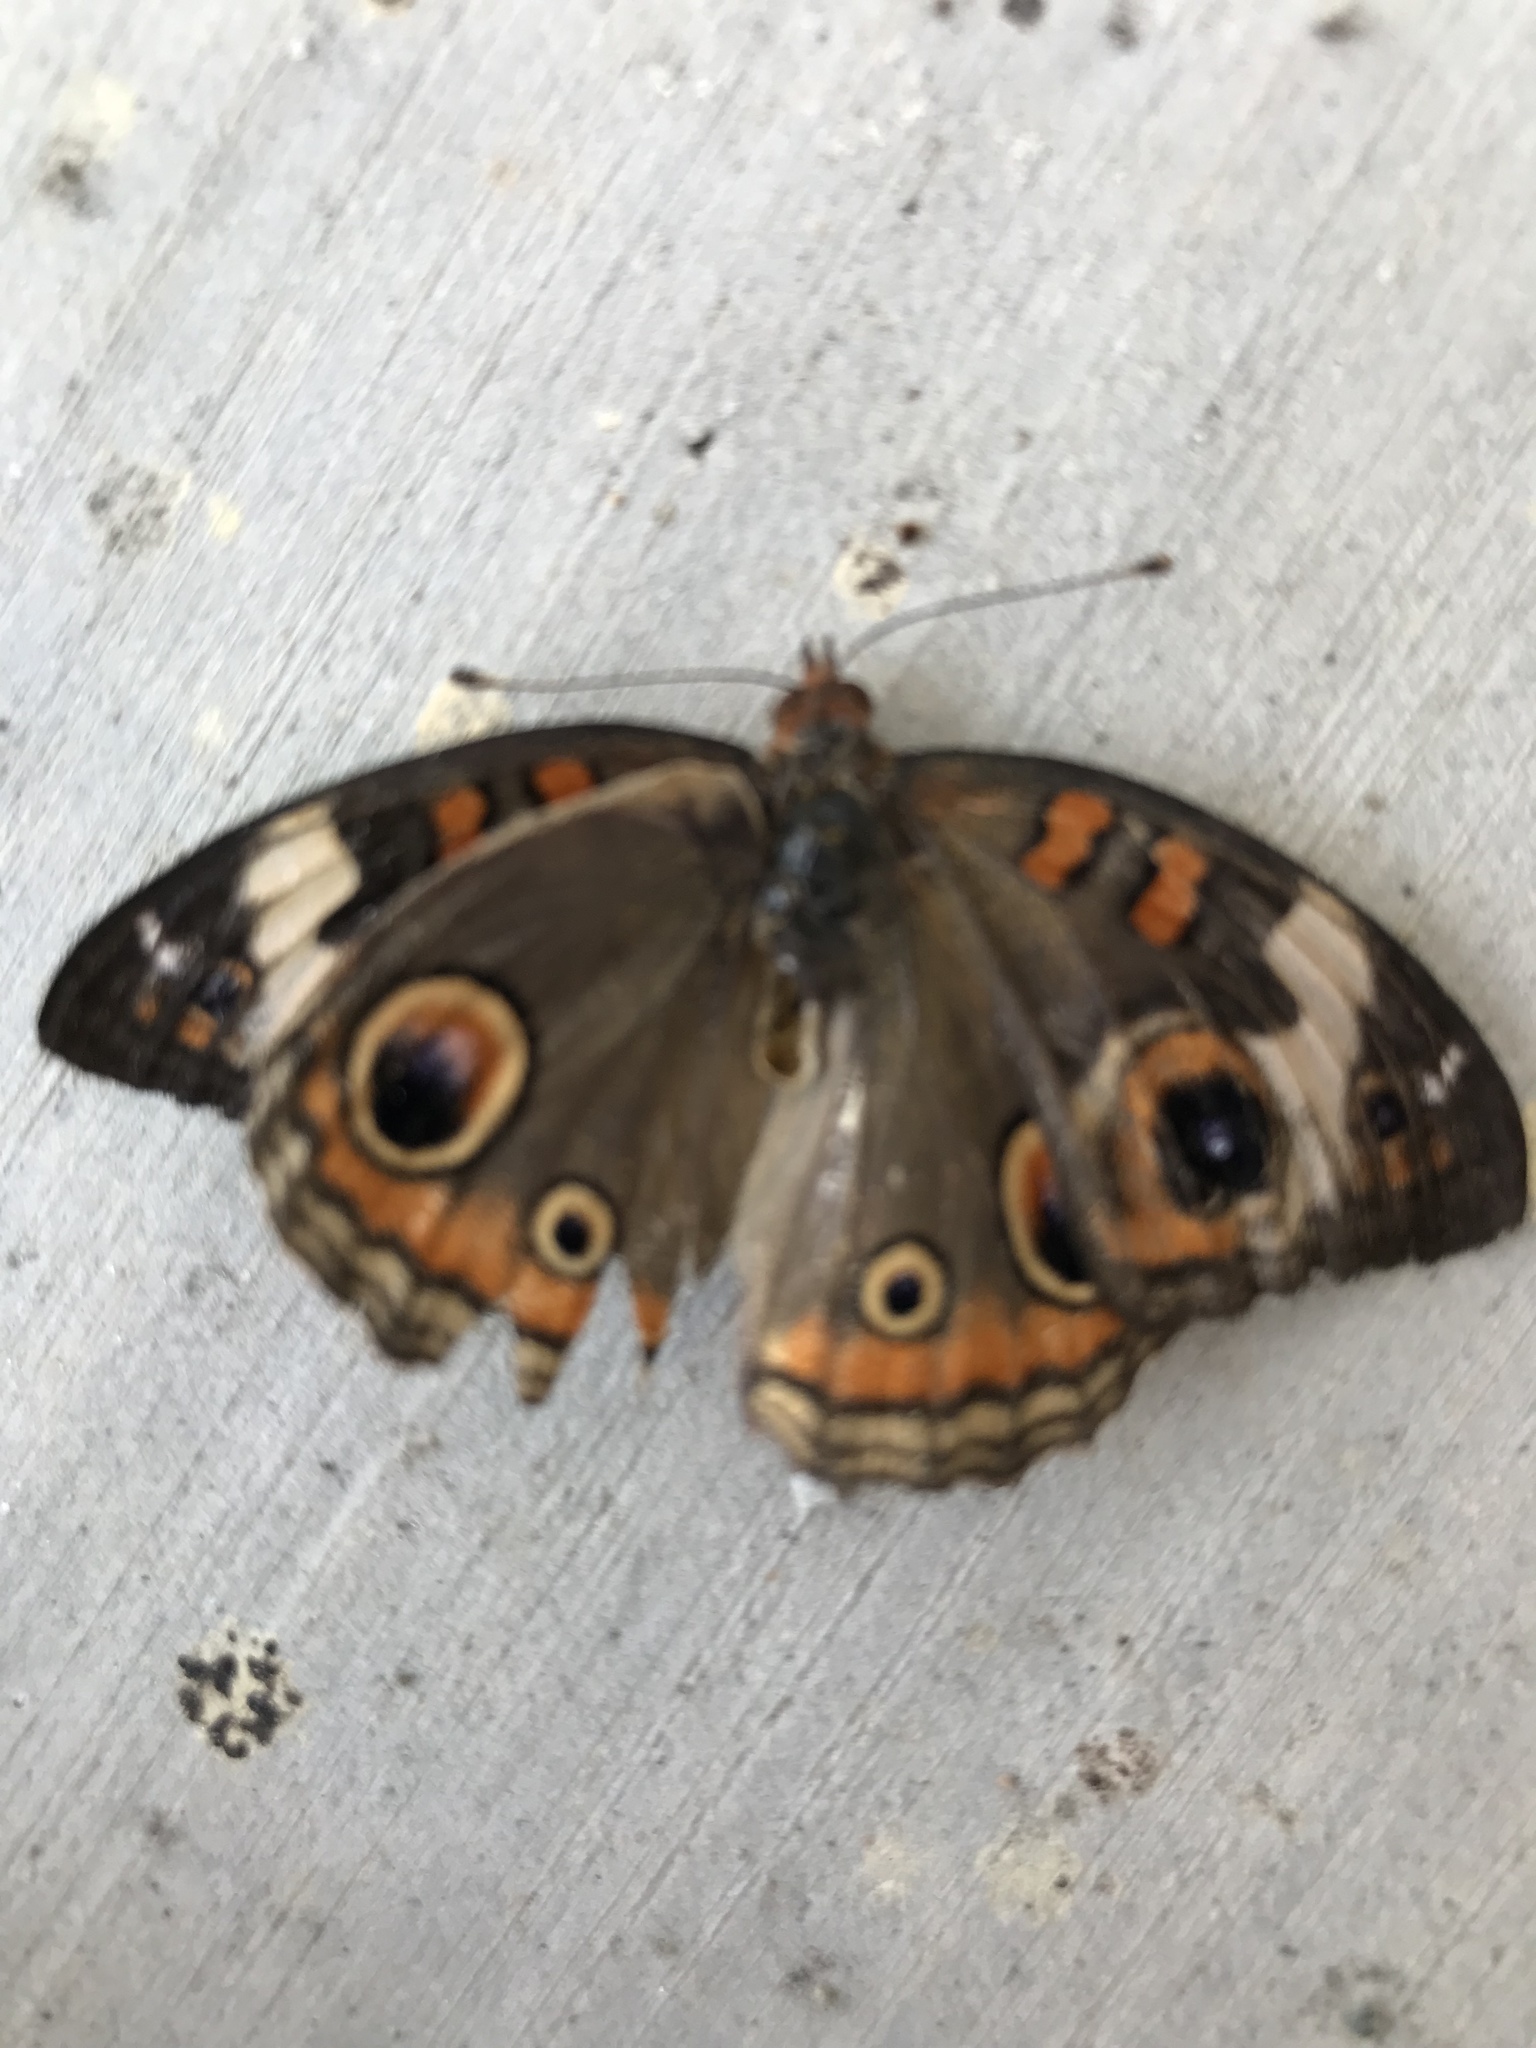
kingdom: Animalia
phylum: Arthropoda
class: Insecta
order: Lepidoptera
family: Nymphalidae
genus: Junonia
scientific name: Junonia coenia
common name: Common buckeye
